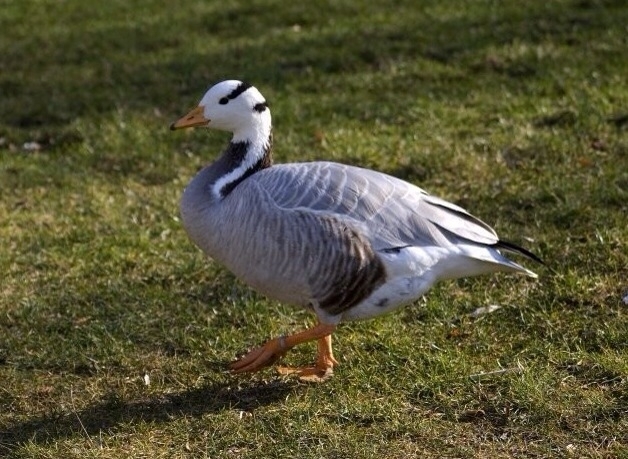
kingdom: Animalia
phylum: Chordata
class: Aves
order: Anseriformes
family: Anatidae
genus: Anser
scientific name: Anser indicus
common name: Bar-headed goose
